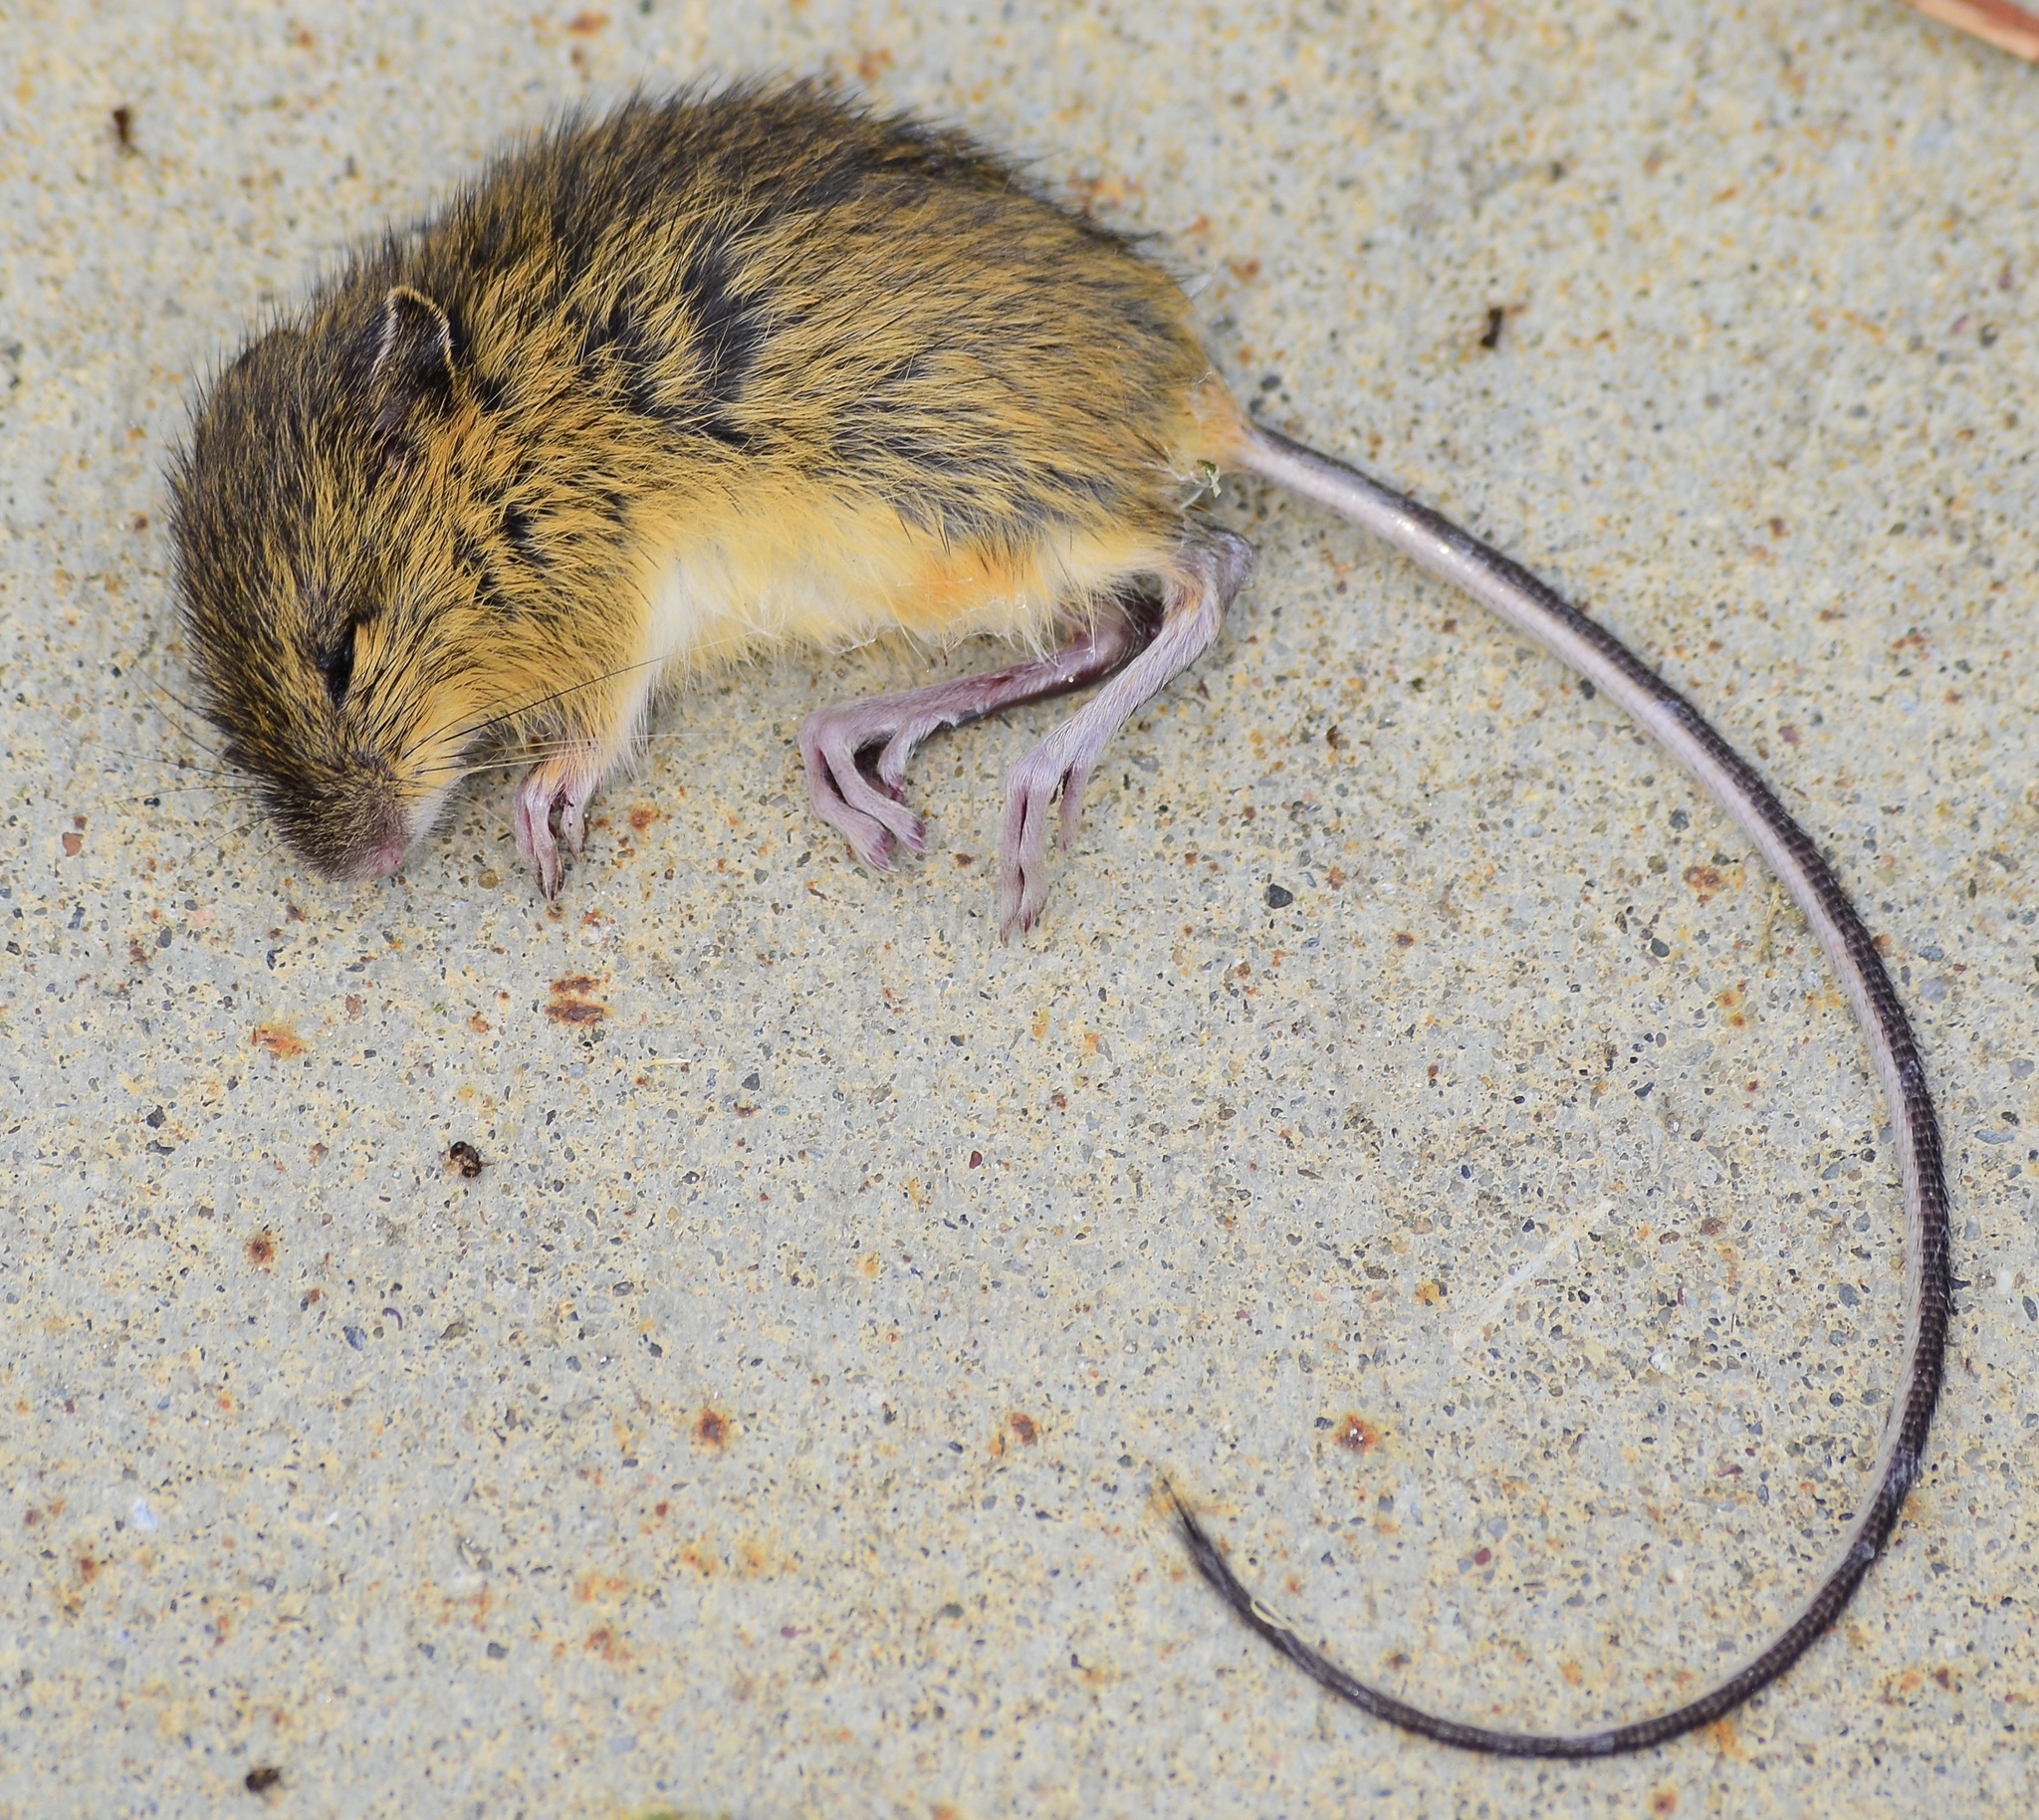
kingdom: Animalia
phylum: Chordata
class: Mammalia
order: Rodentia
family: Dipodidae
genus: Zapus
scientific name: Zapus hudsonius
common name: Meadow jumping mouse
